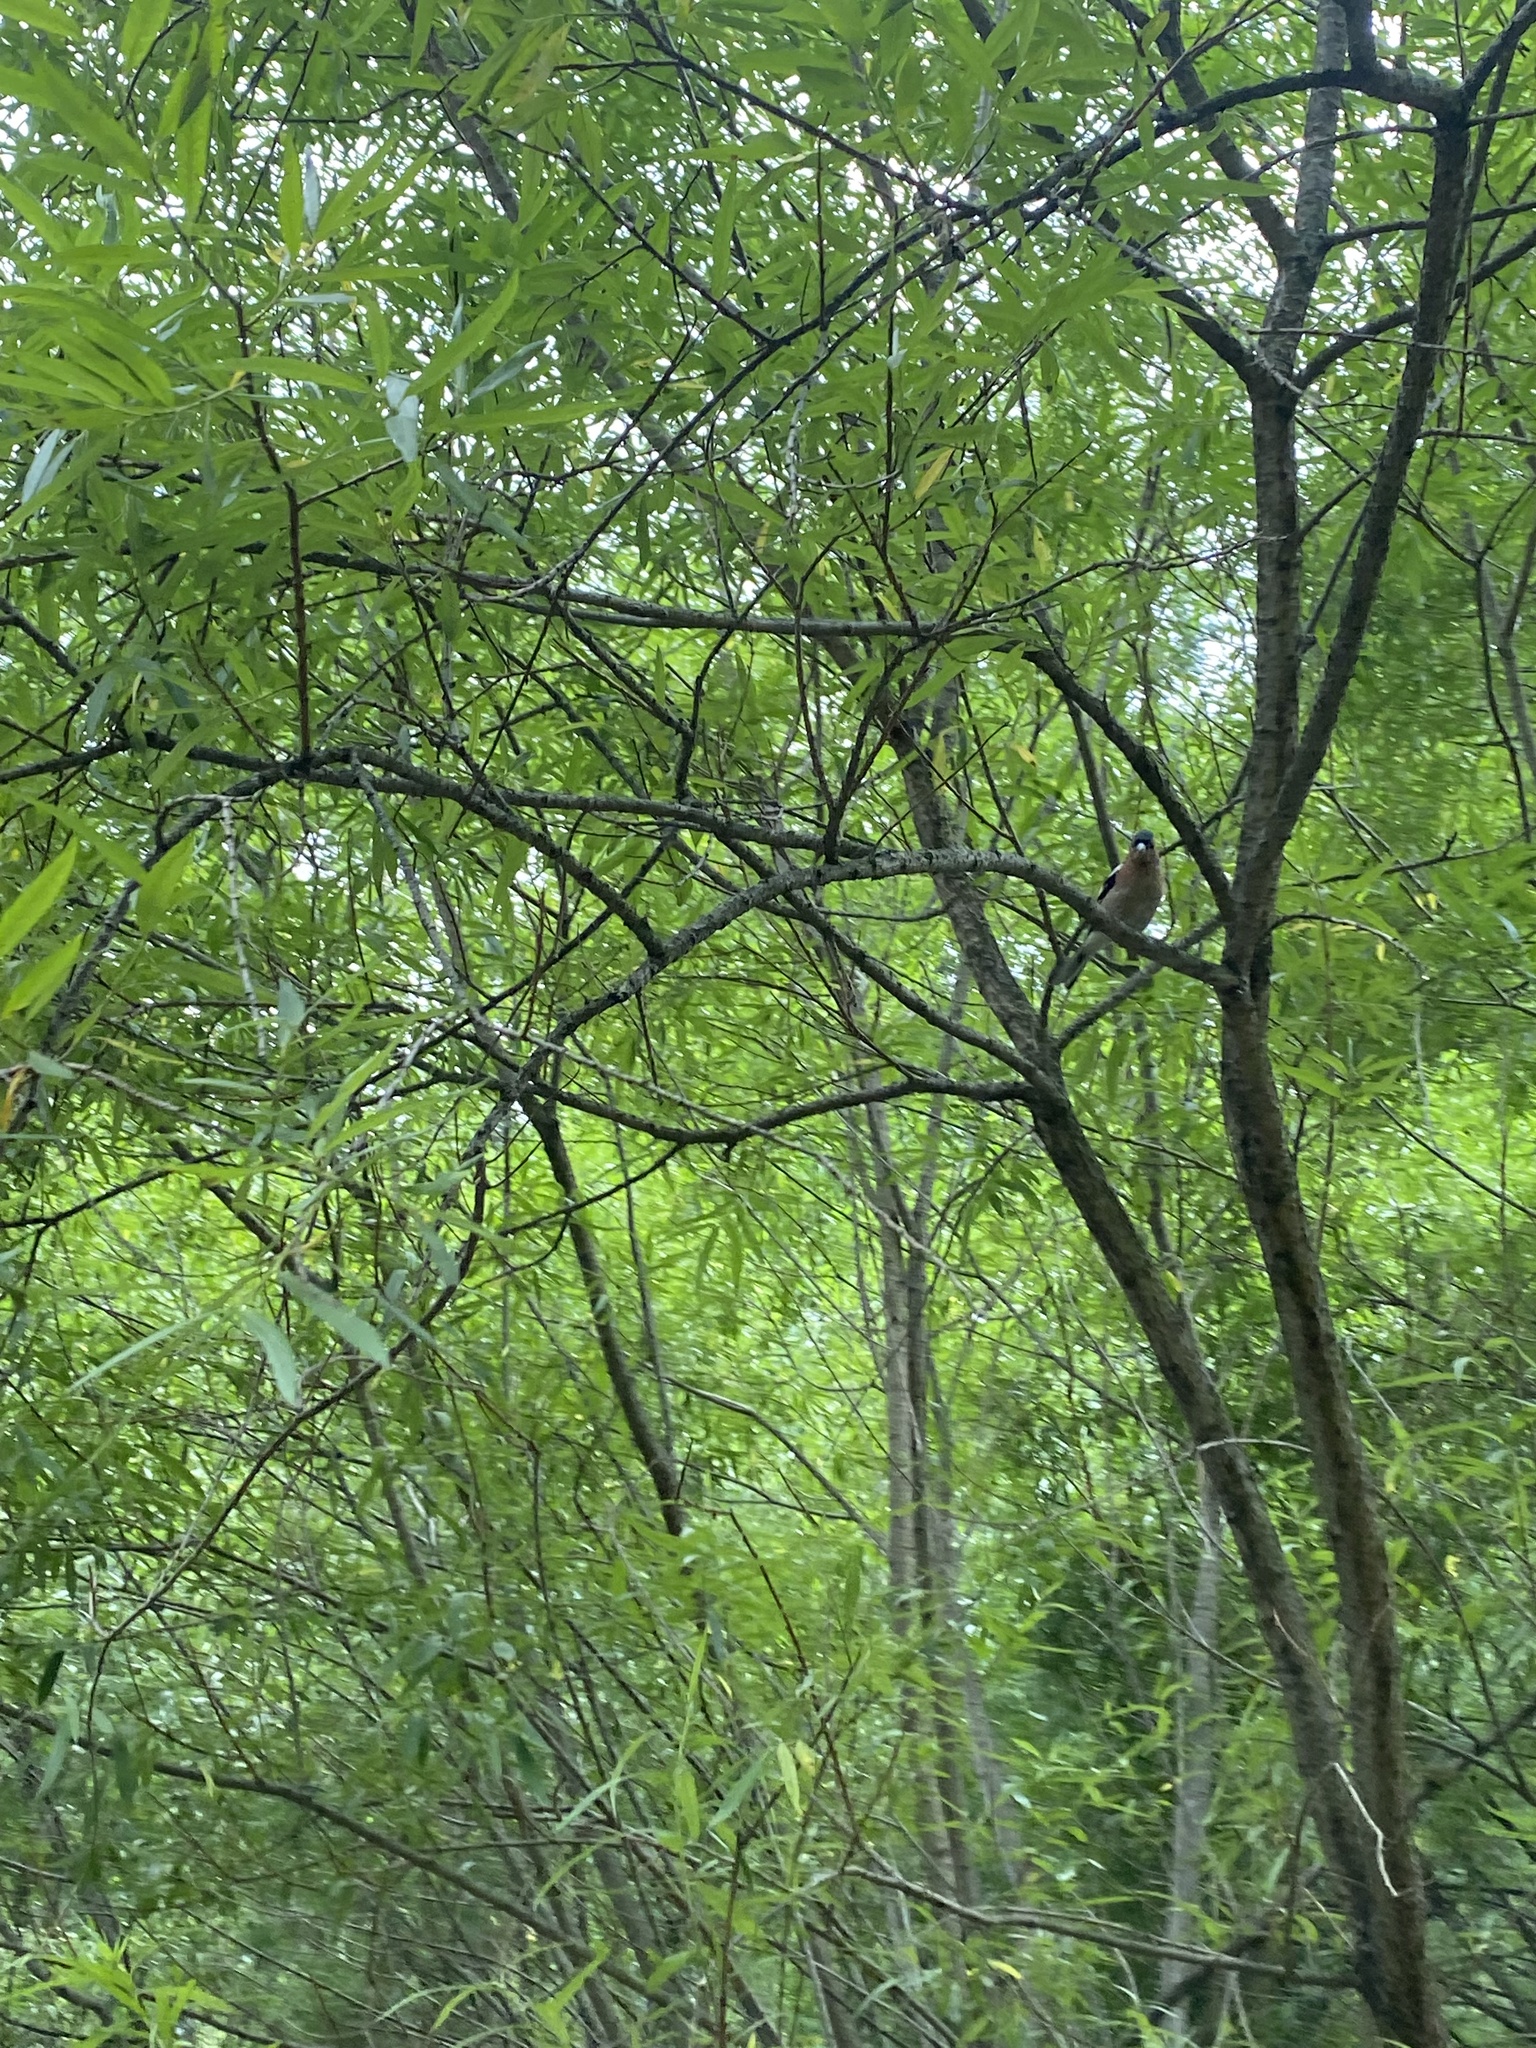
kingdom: Animalia
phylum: Chordata
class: Aves
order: Passeriformes
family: Fringillidae
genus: Fringilla
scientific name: Fringilla coelebs
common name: Common chaffinch
